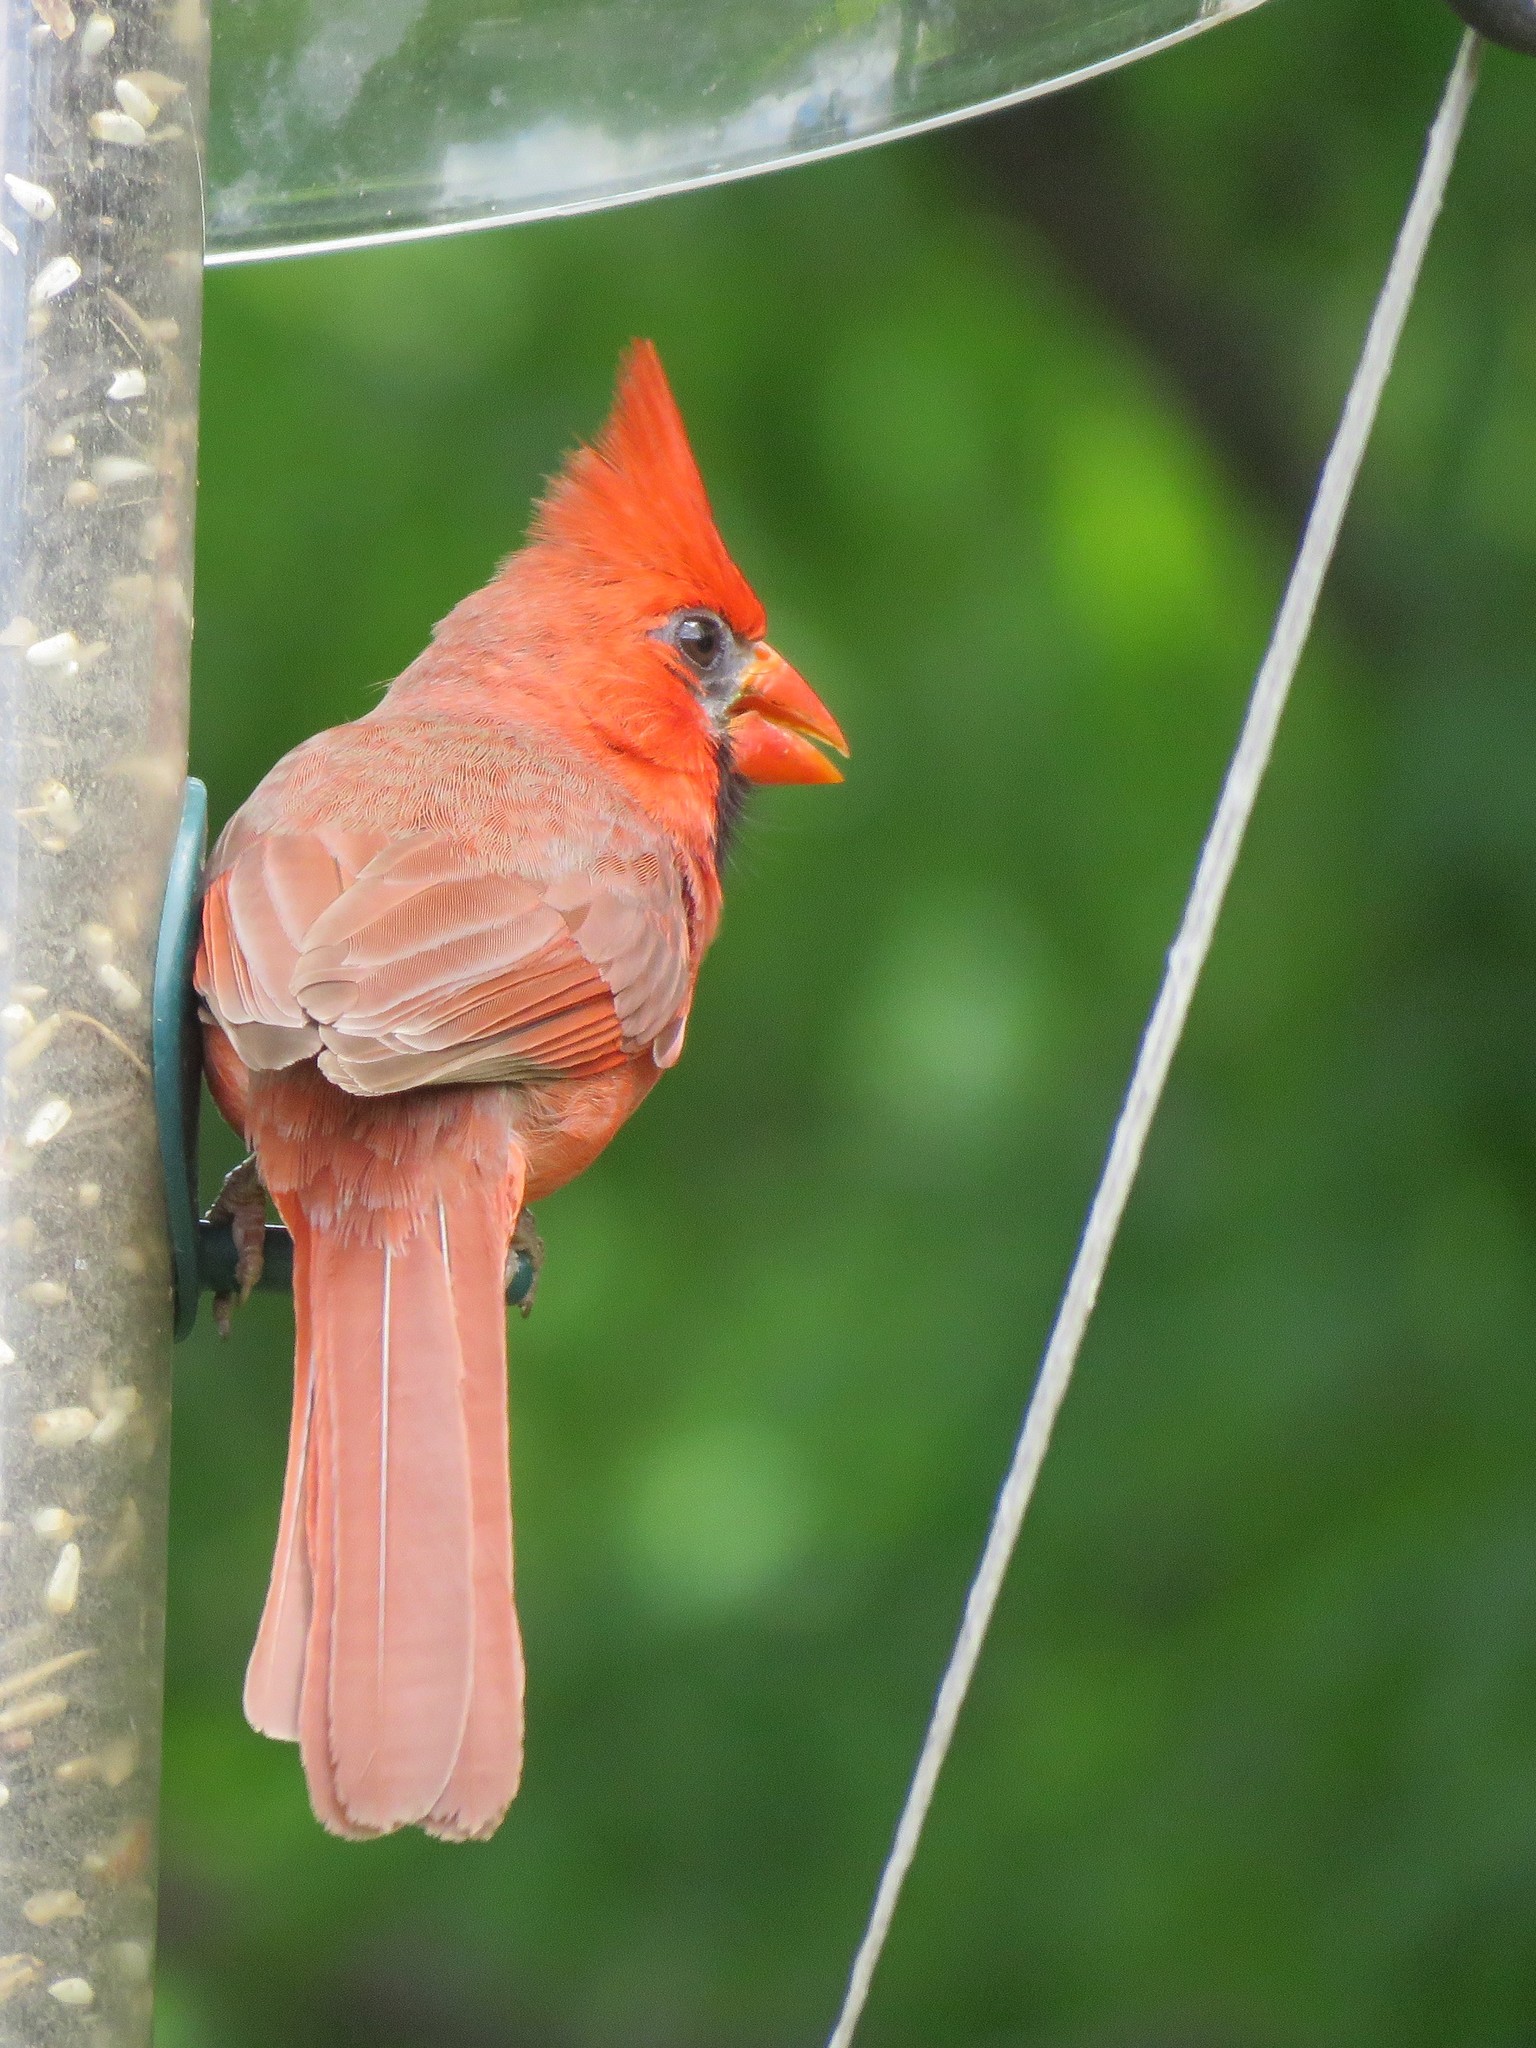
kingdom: Animalia
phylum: Chordata
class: Aves
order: Passeriformes
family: Cardinalidae
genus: Cardinalis
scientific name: Cardinalis cardinalis
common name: Northern cardinal
